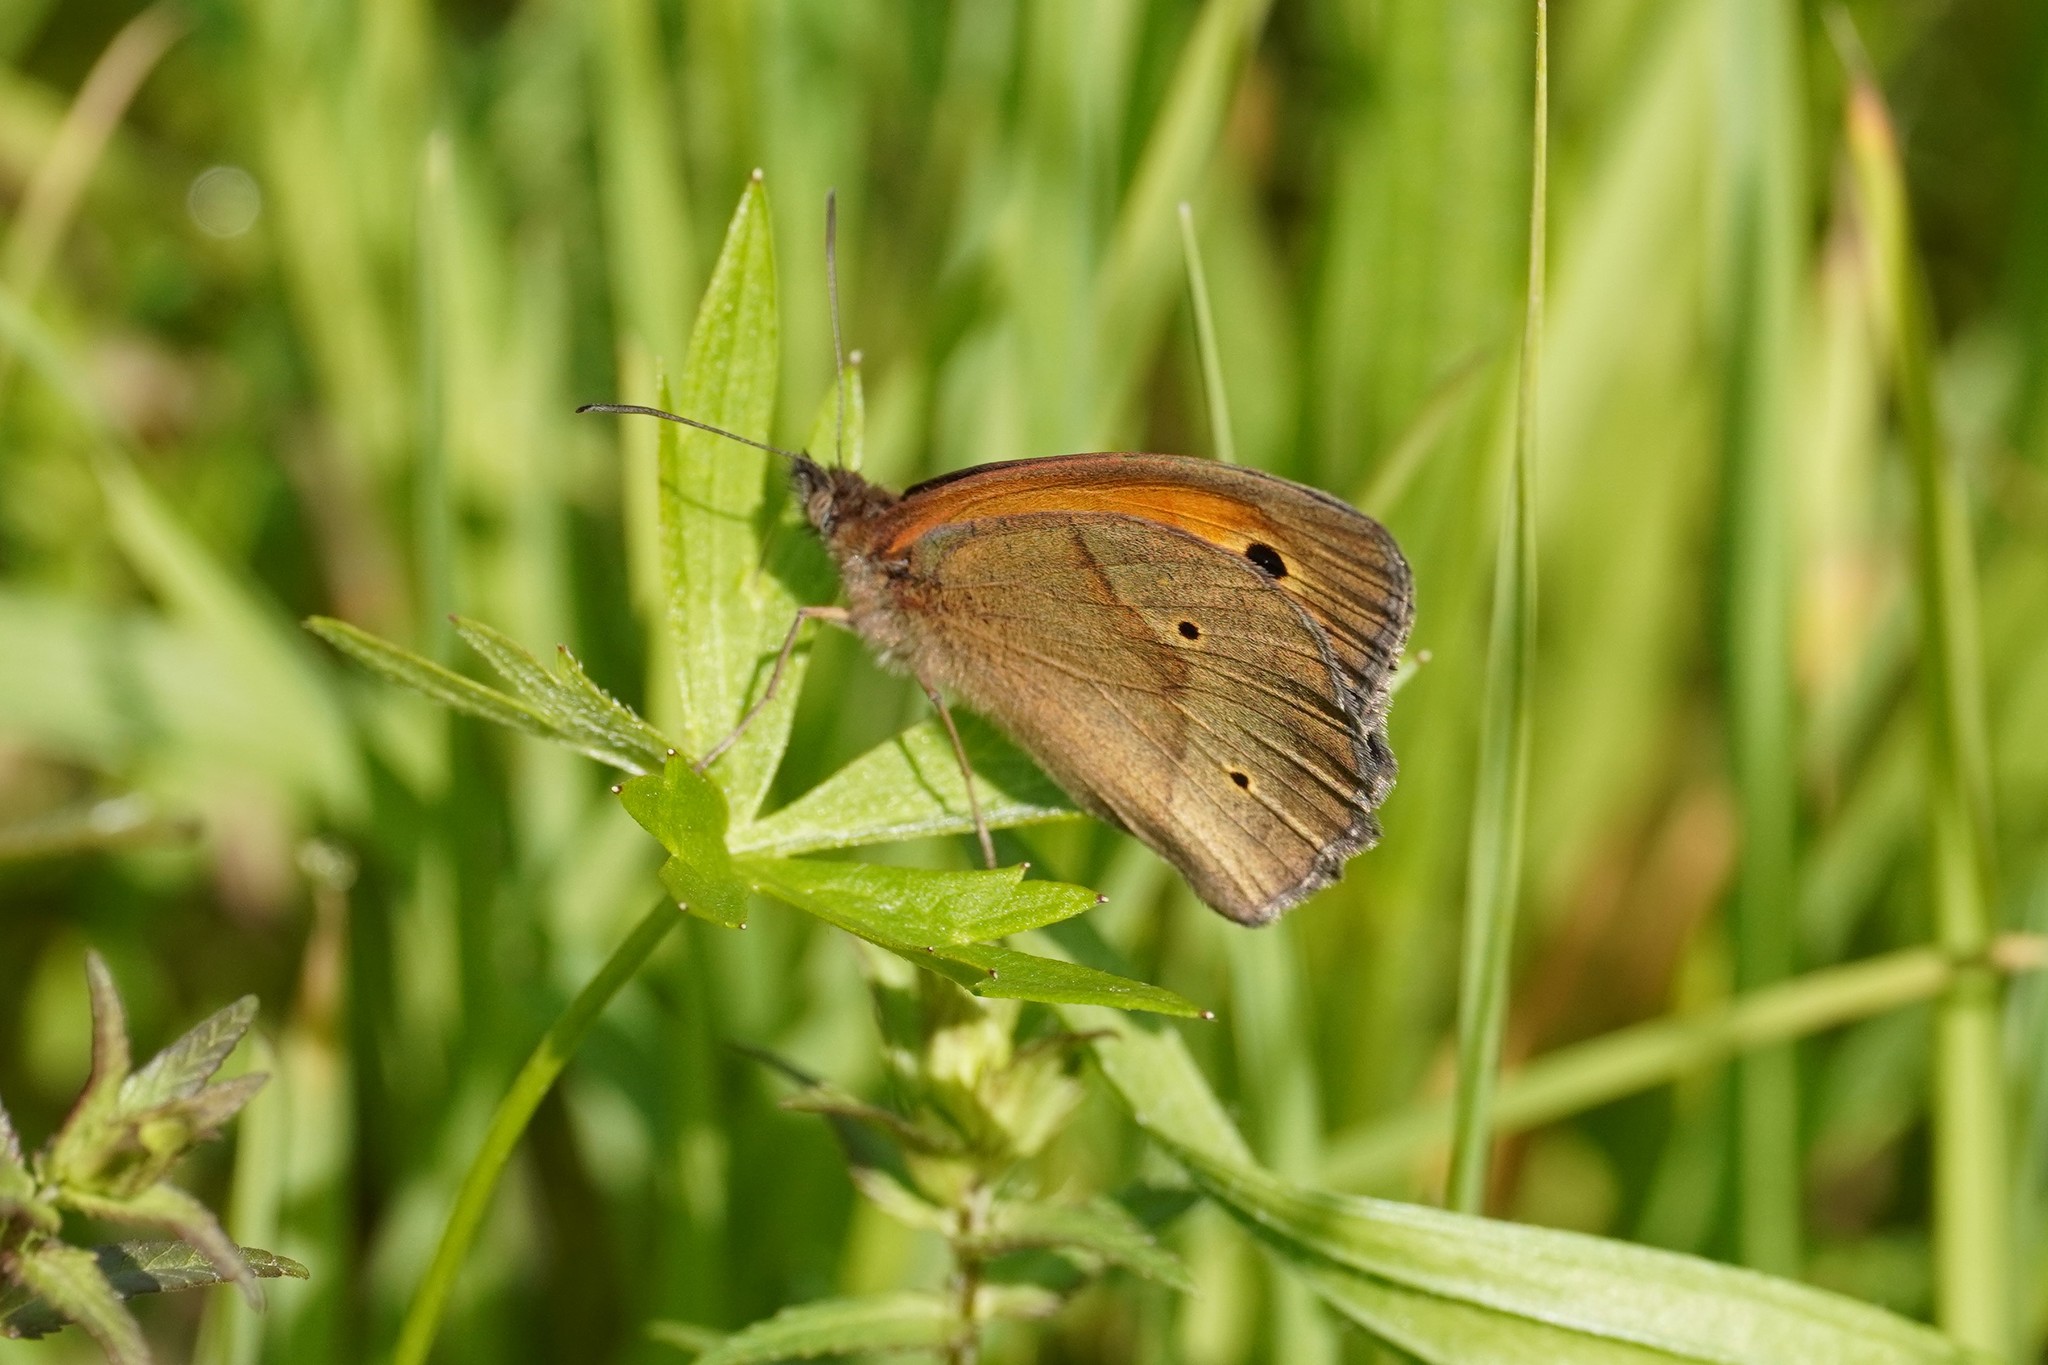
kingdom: Animalia
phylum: Arthropoda
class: Insecta
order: Lepidoptera
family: Nymphalidae
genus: Maniola
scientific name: Maniola jurtina
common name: Meadow brown
